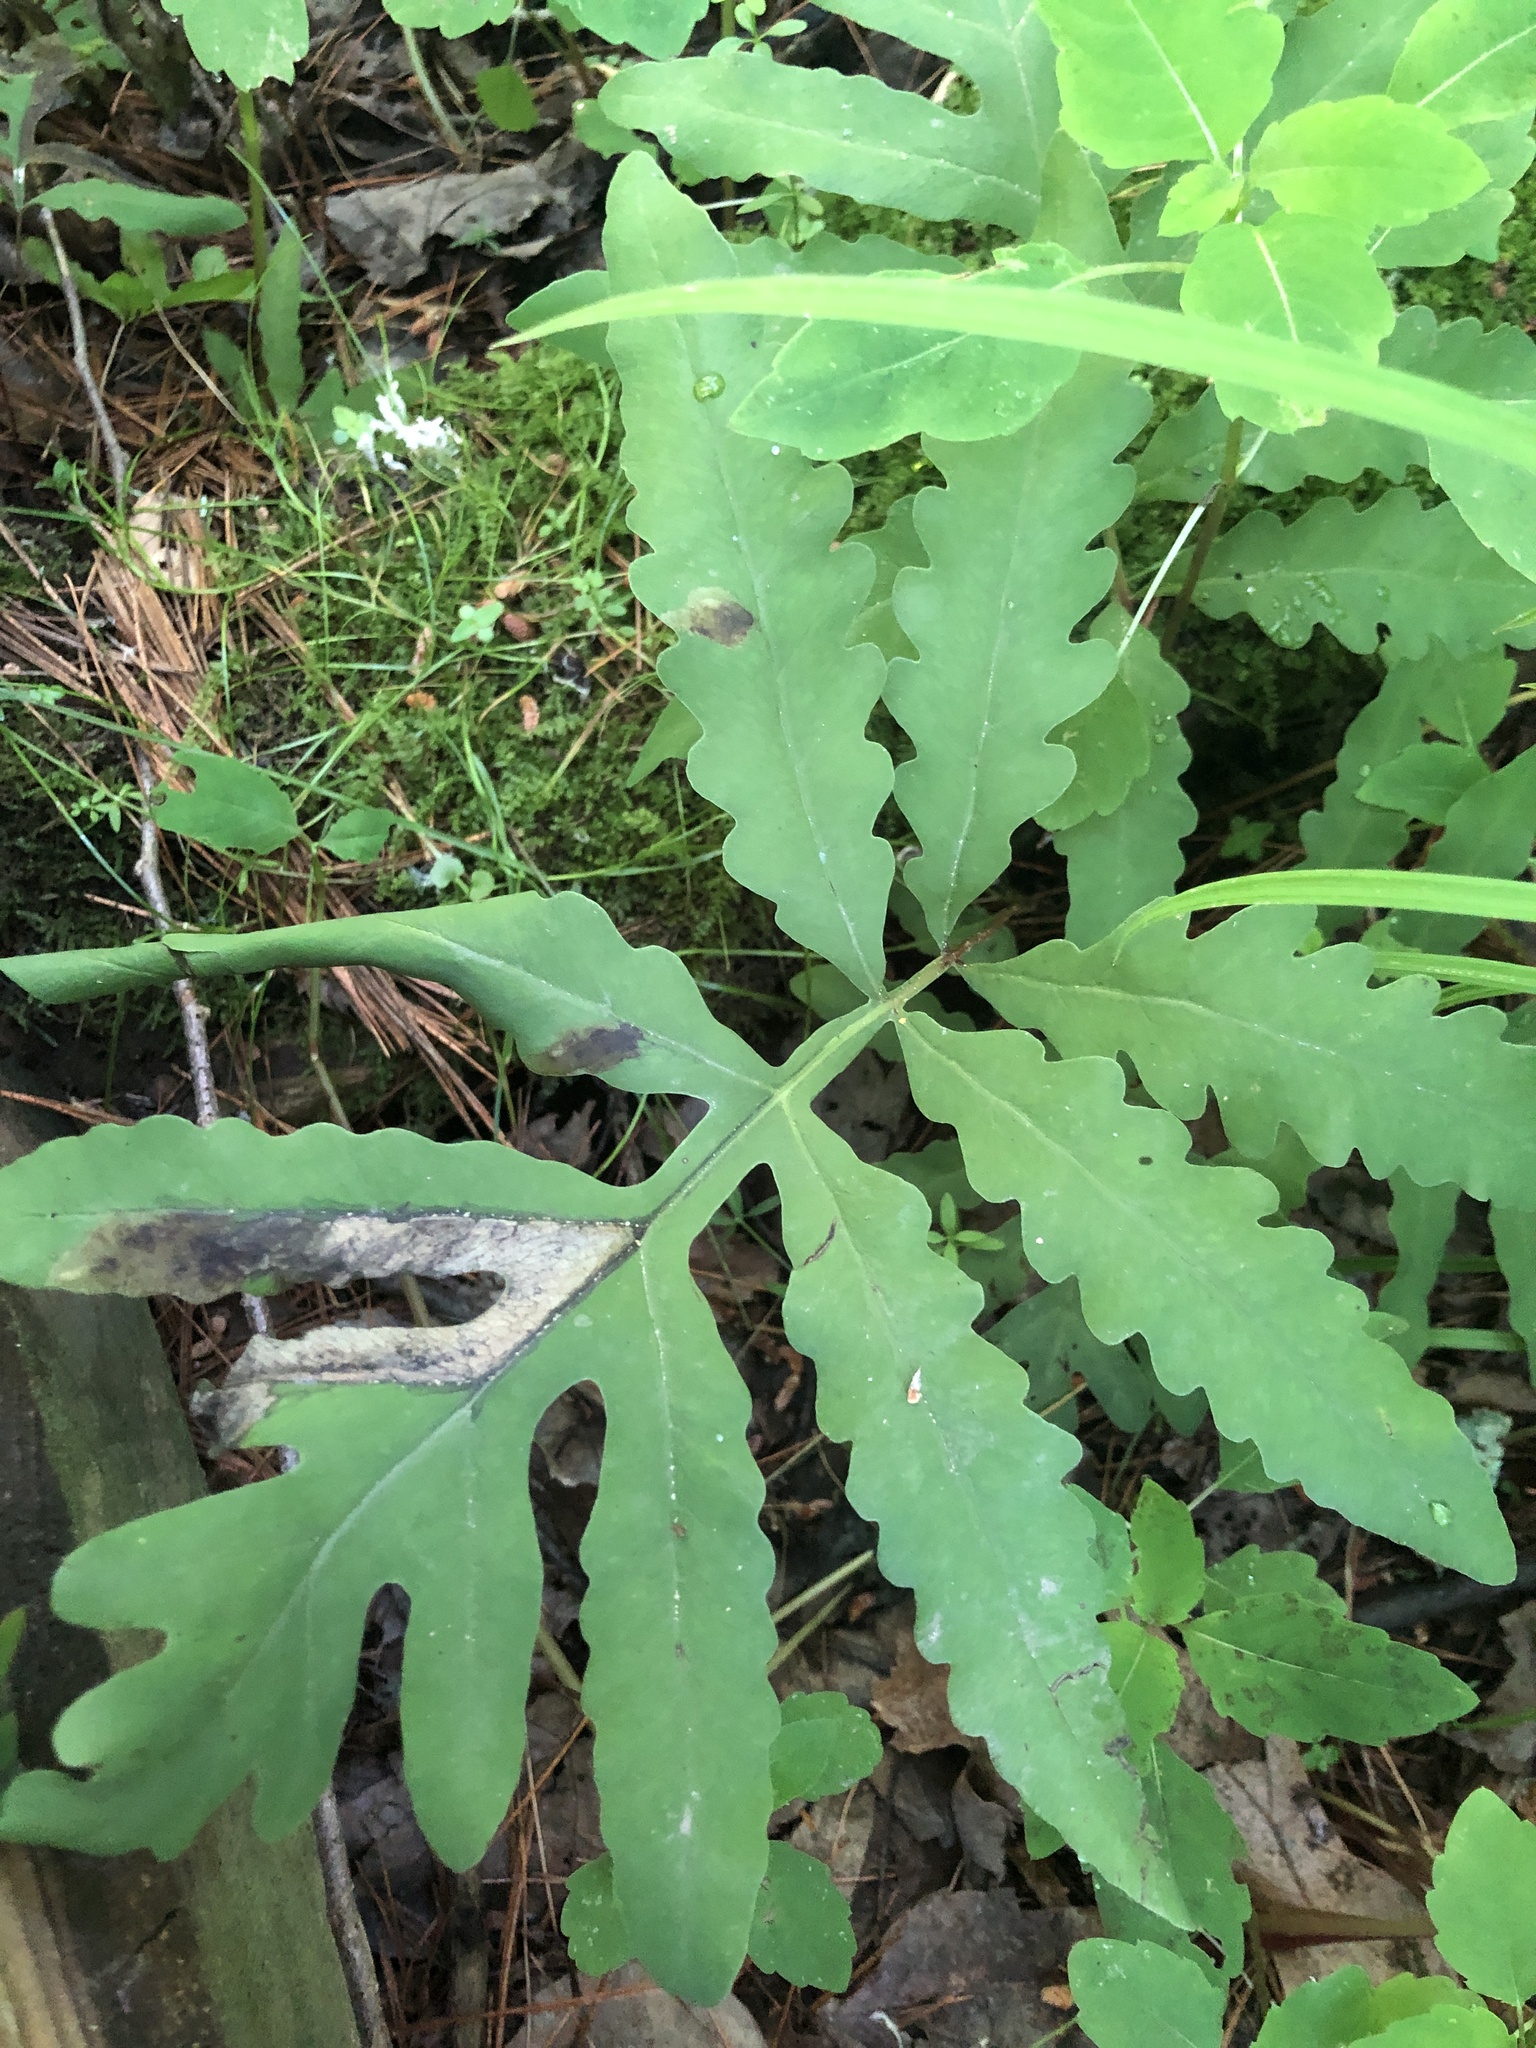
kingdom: Plantae
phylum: Tracheophyta
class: Polypodiopsida
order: Polypodiales
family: Onocleaceae
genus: Onoclea
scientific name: Onoclea sensibilis
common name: Sensitive fern
